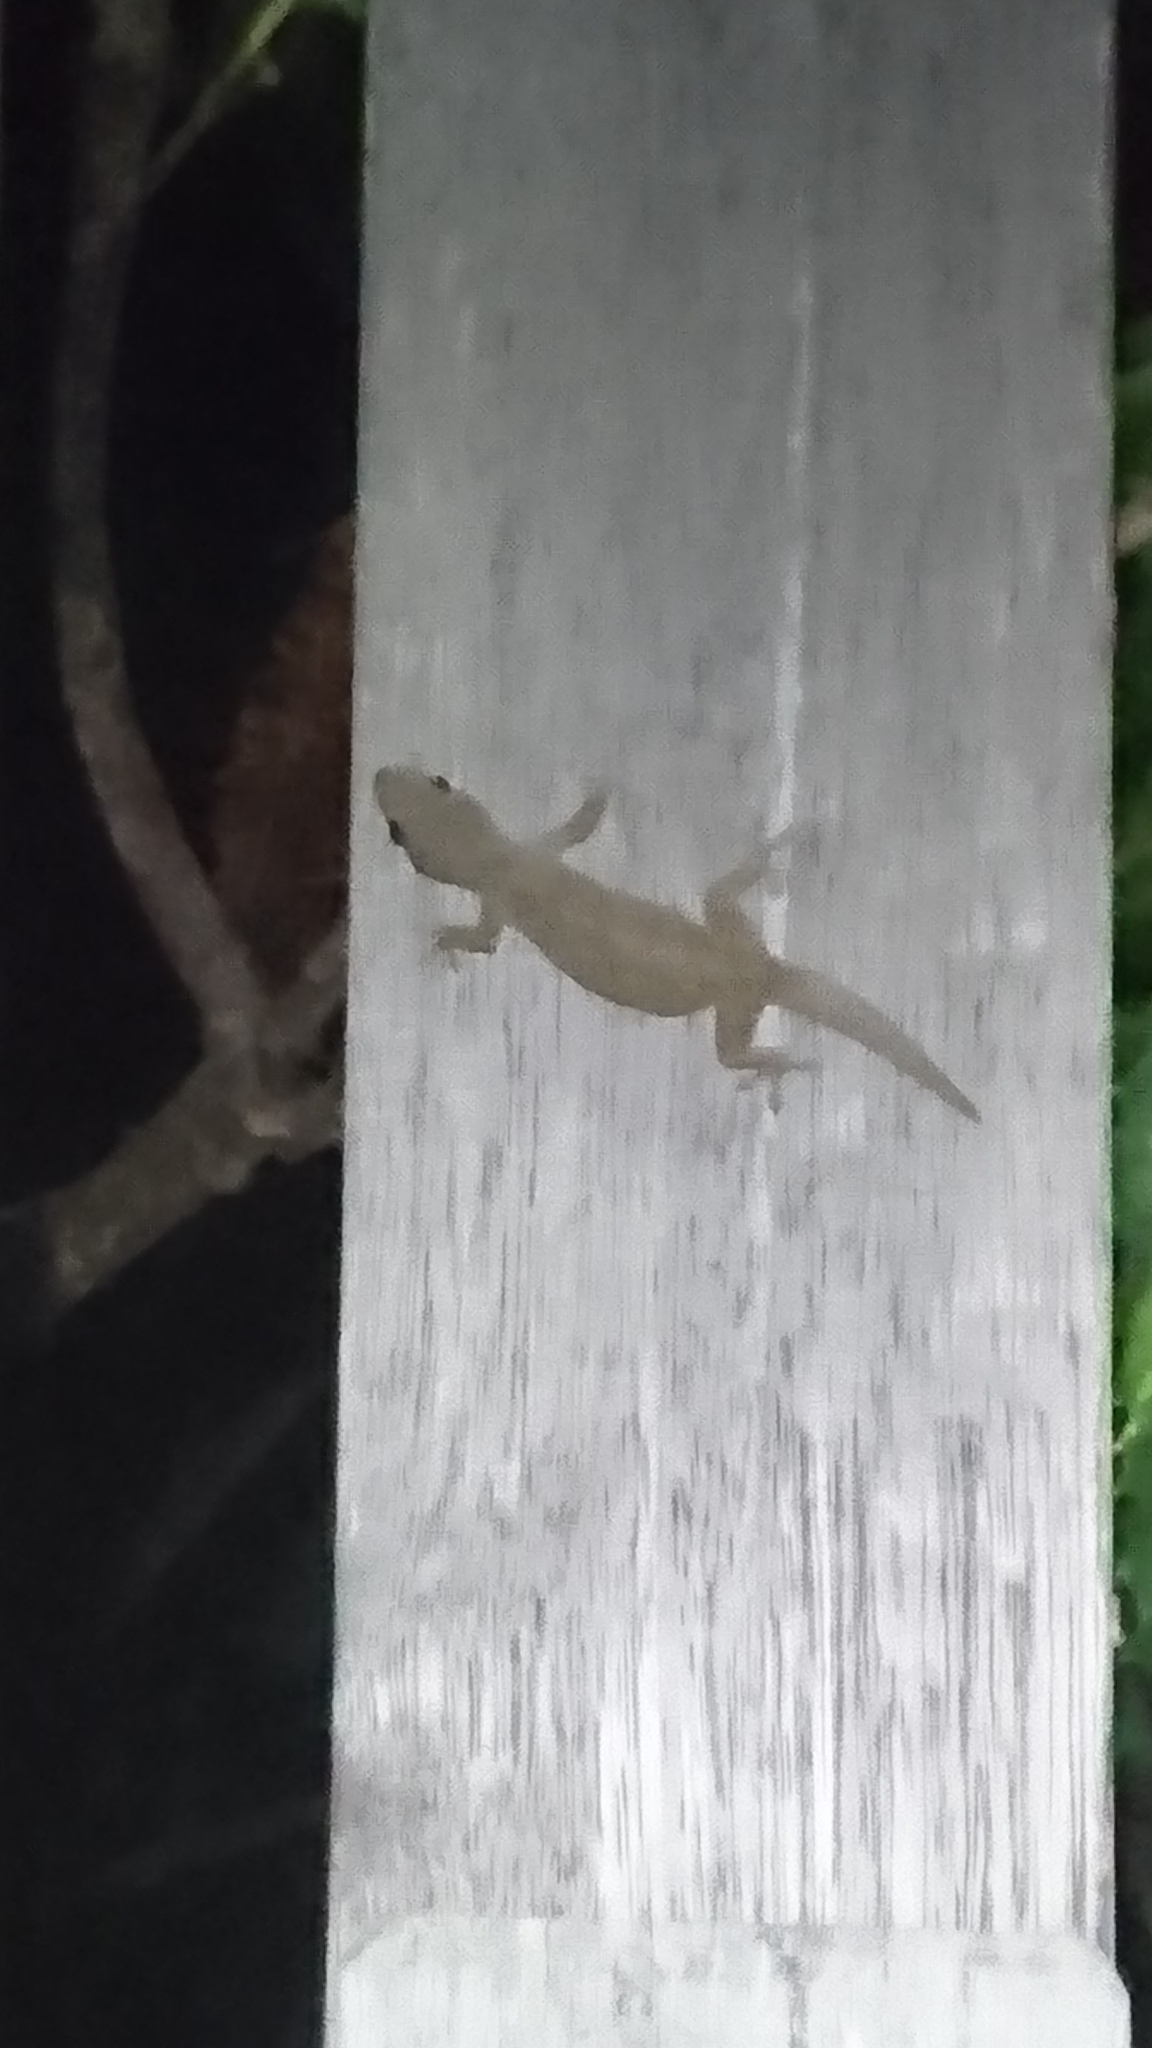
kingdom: Animalia
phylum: Chordata
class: Squamata
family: Gekkonidae
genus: Hemidactylus
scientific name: Hemidactylus frenatus
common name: Common house gecko
